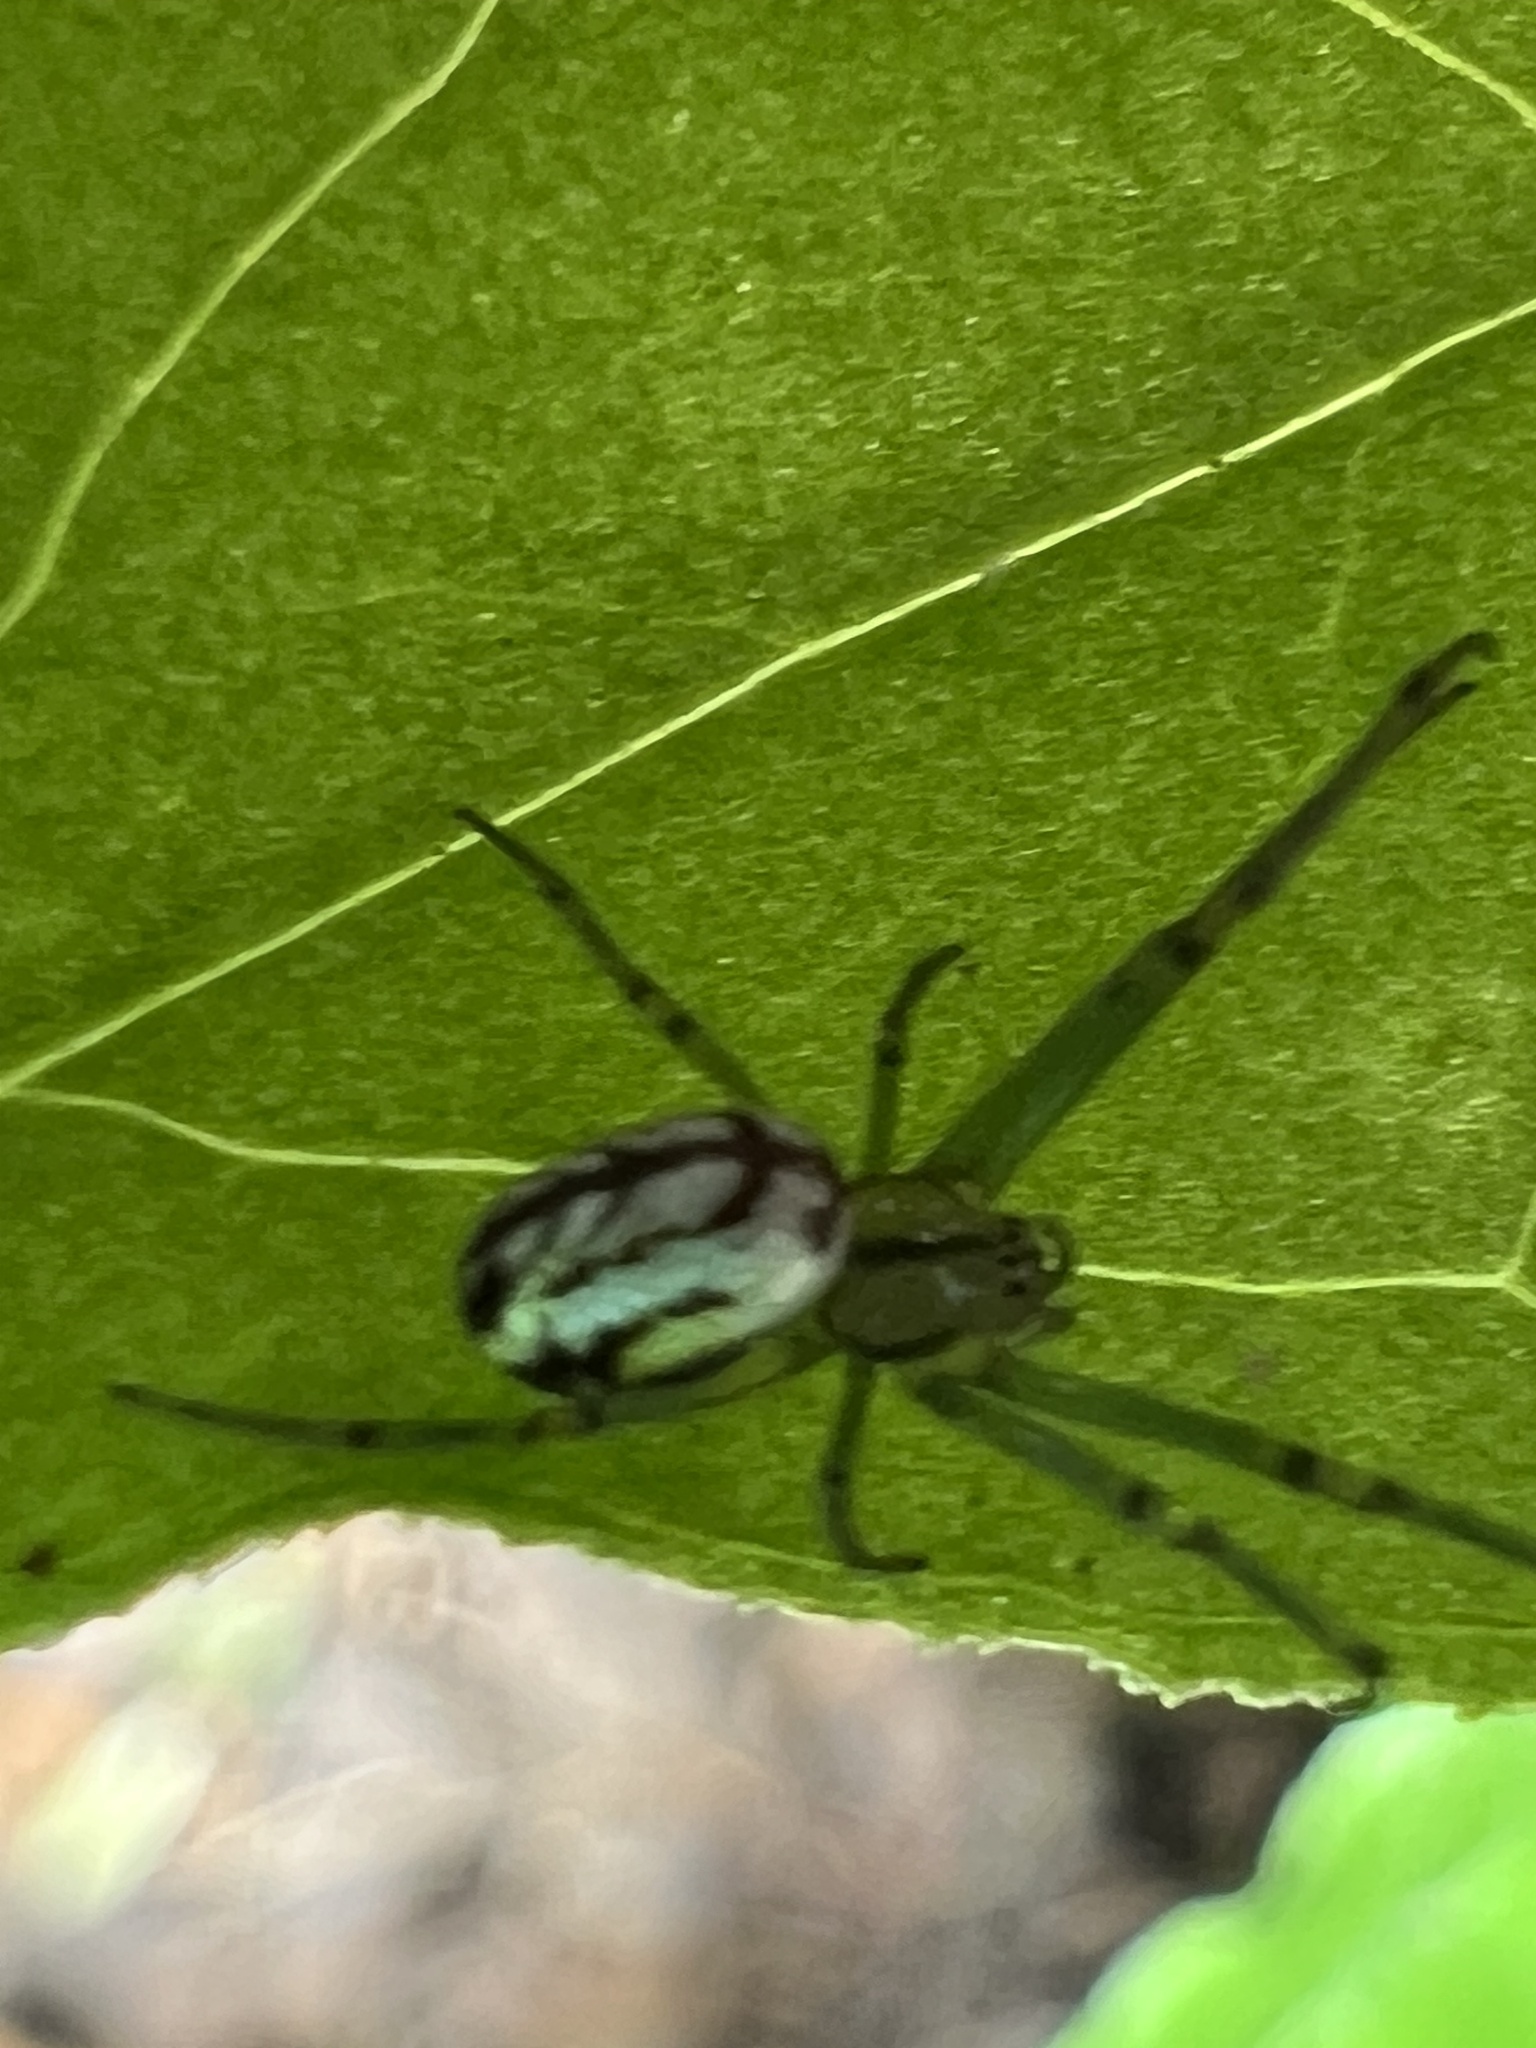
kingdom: Animalia
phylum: Arthropoda
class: Arachnida
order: Araneae
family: Tetragnathidae
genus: Leucauge
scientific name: Leucauge venusta
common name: Longjawed orb weavers
